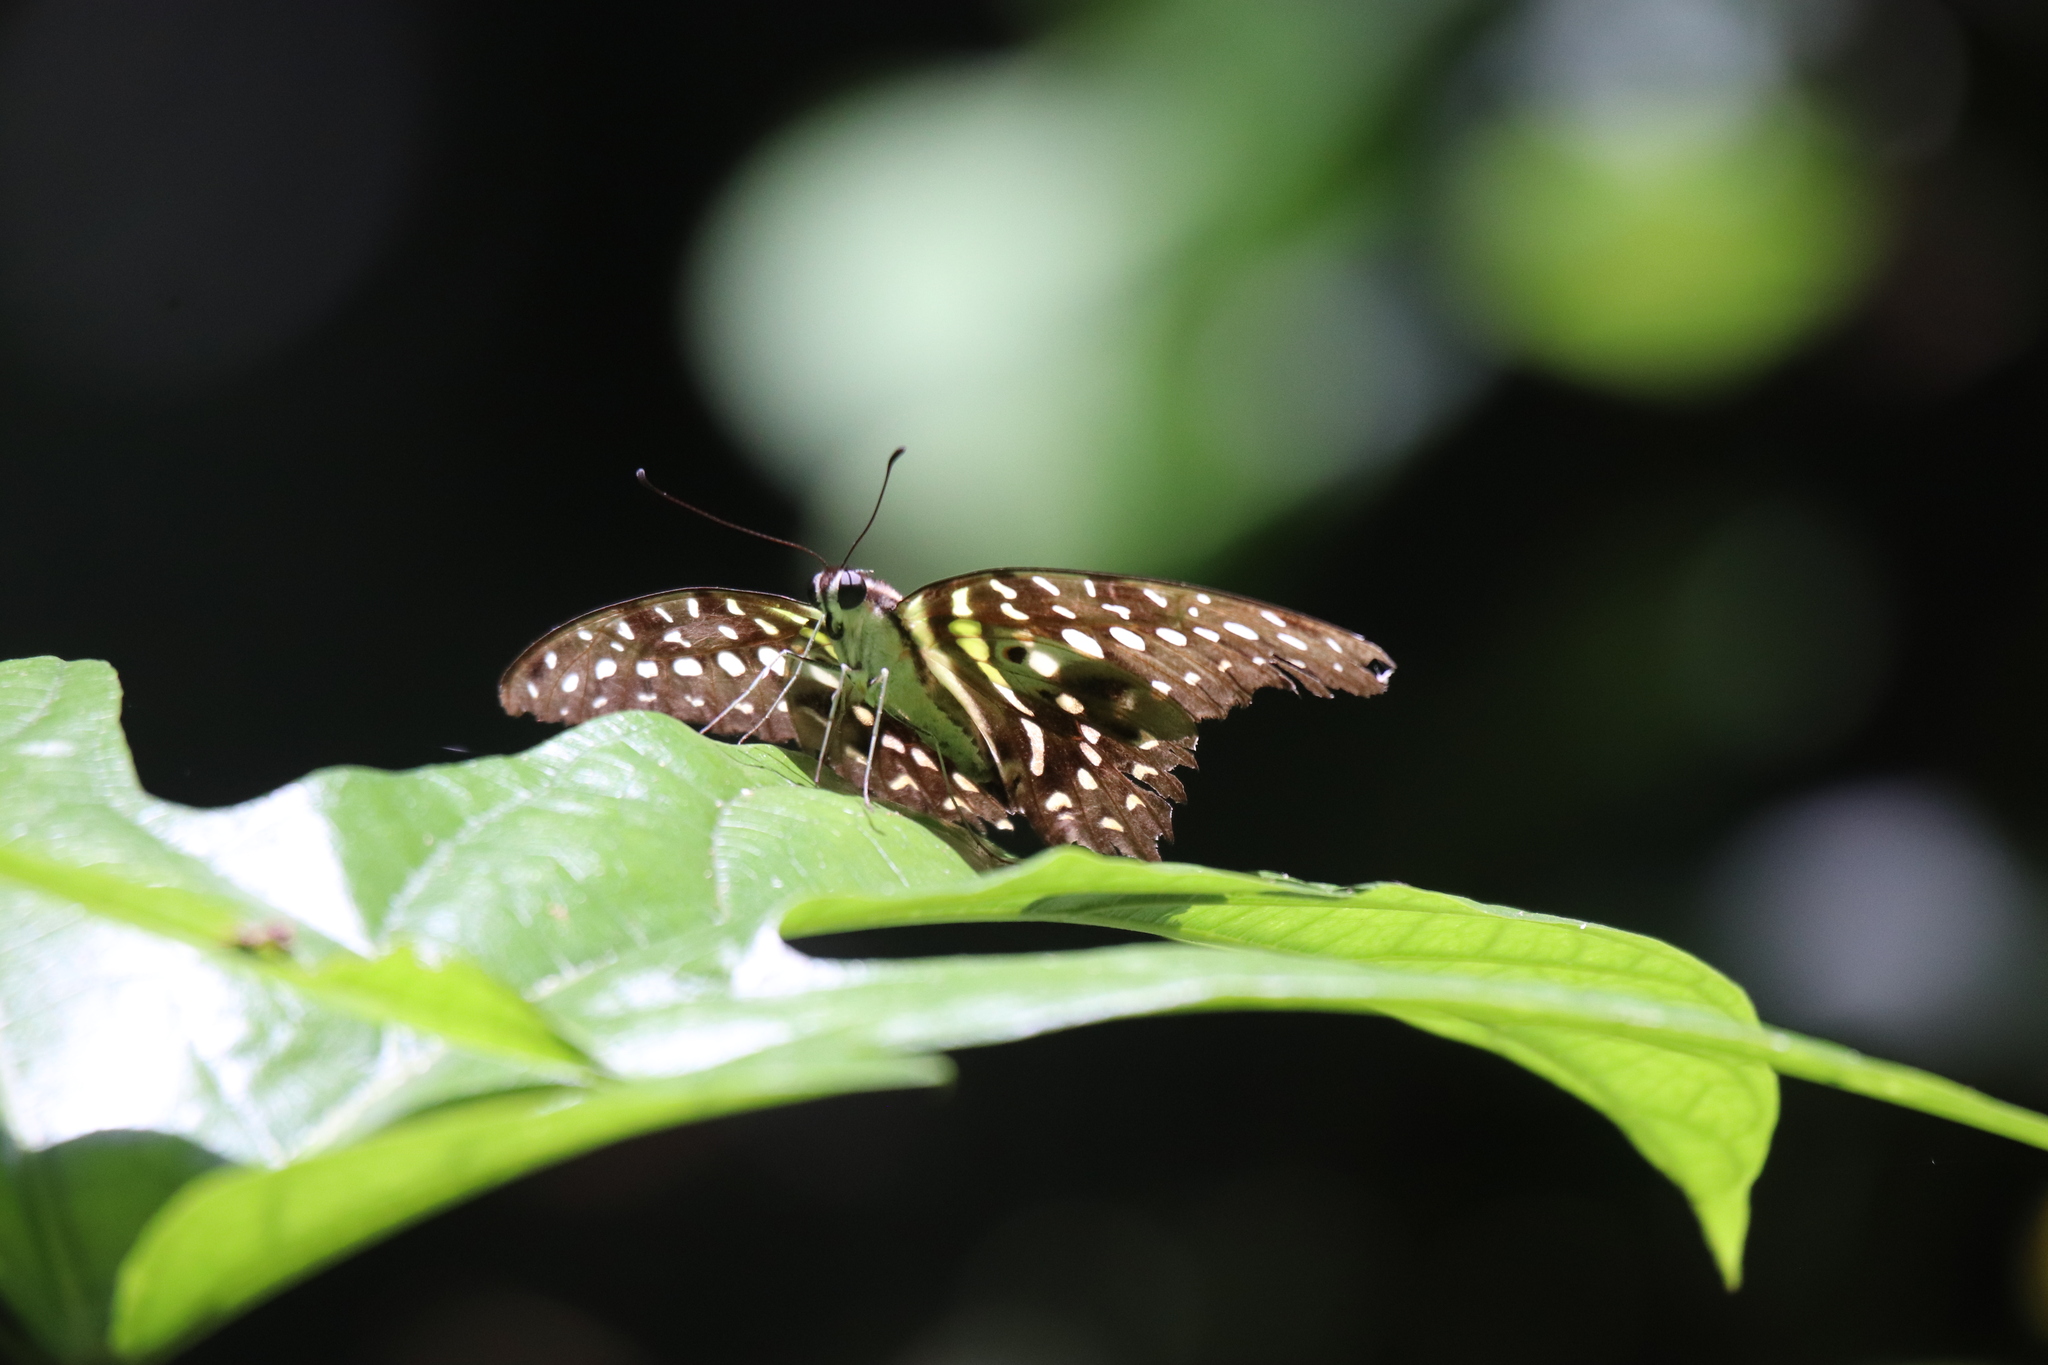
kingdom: Animalia
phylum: Arthropoda
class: Insecta
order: Lepidoptera
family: Papilionidae
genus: Graphium
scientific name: Graphium agamemnon
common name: Tailed jay
